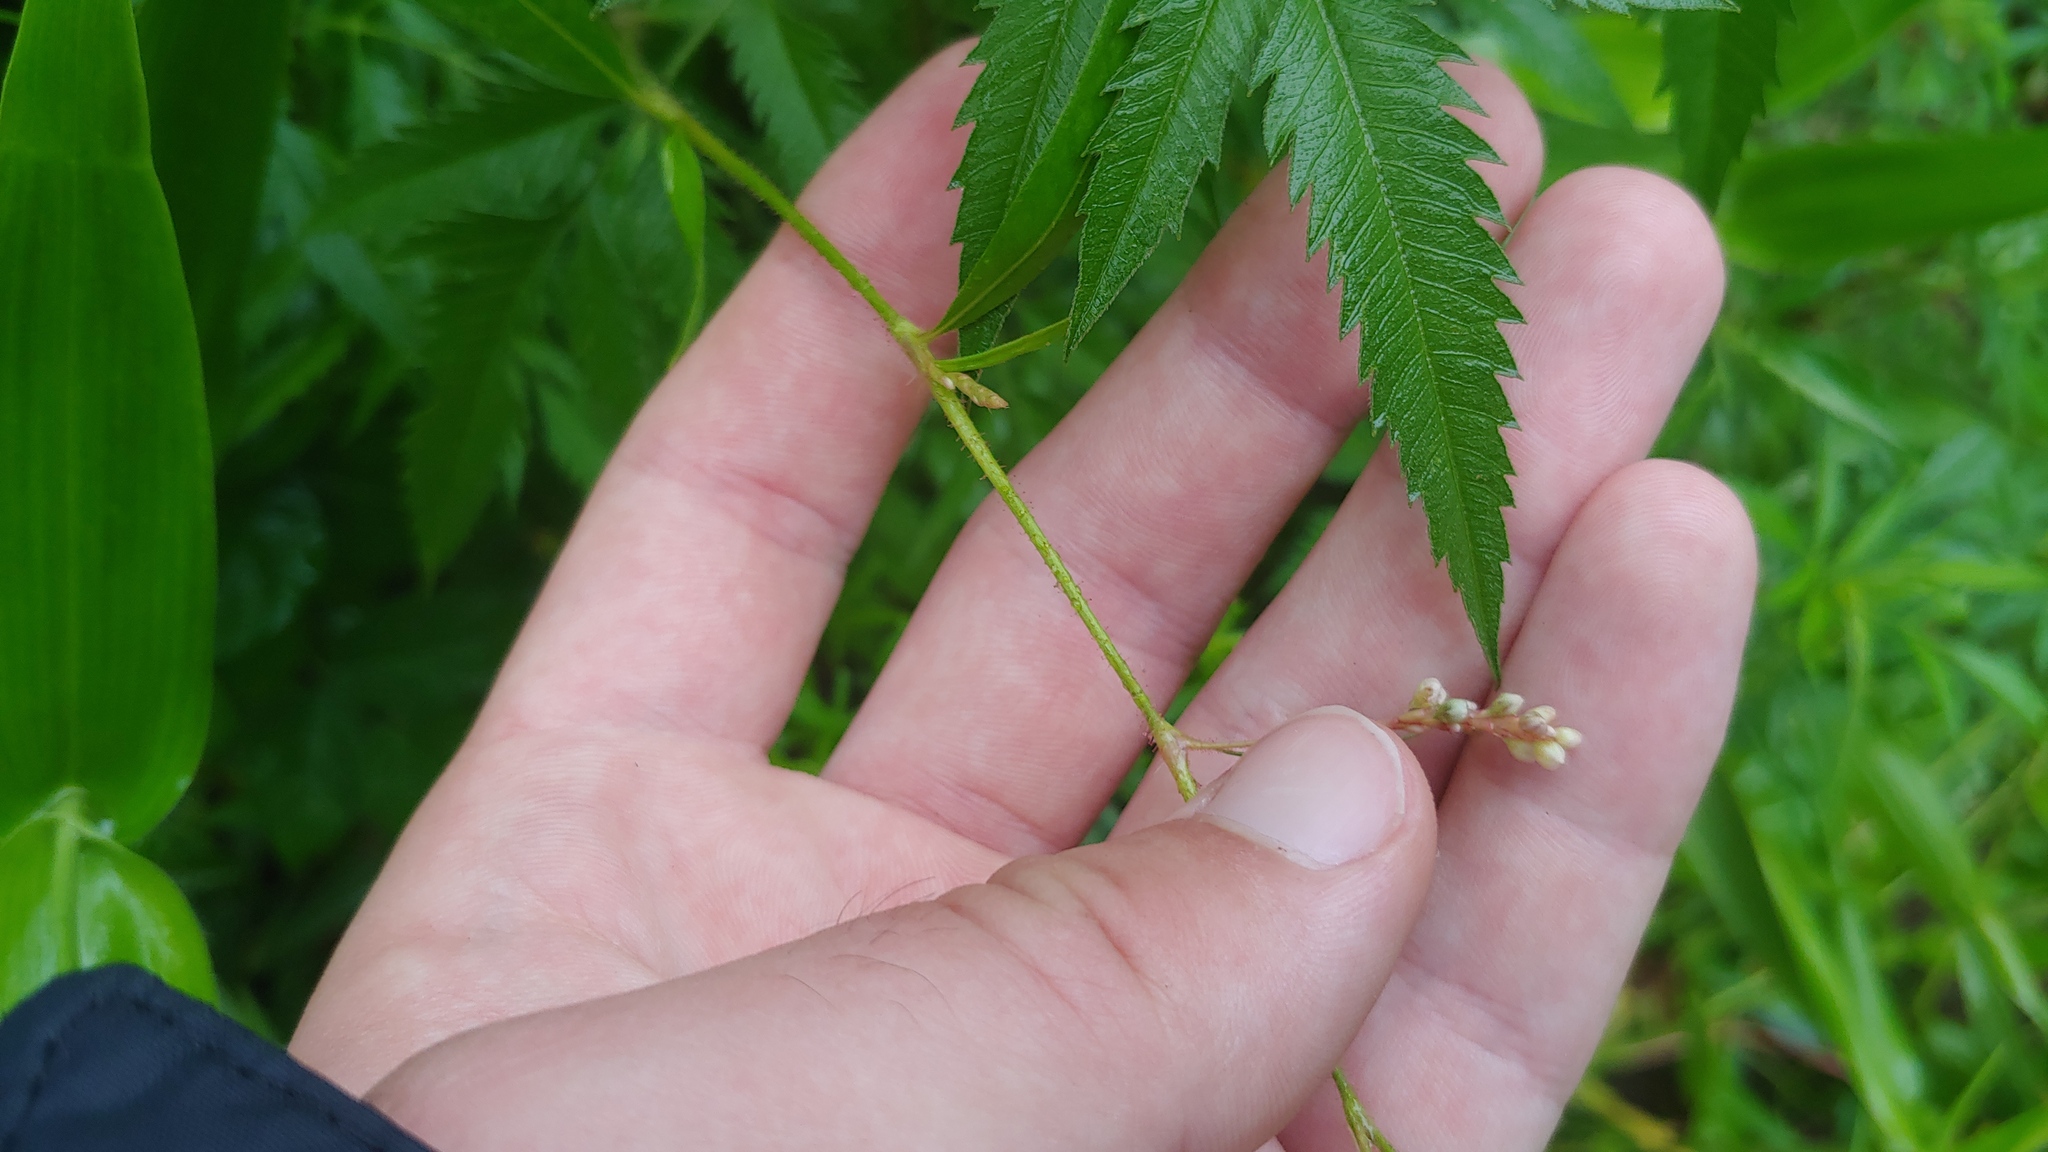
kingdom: Plantae
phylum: Tracheophyta
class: Magnoliopsida
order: Caryophyllales
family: Polygonaceae
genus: Persicaria
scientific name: Persicaria careyi
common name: Carey's smartweed
